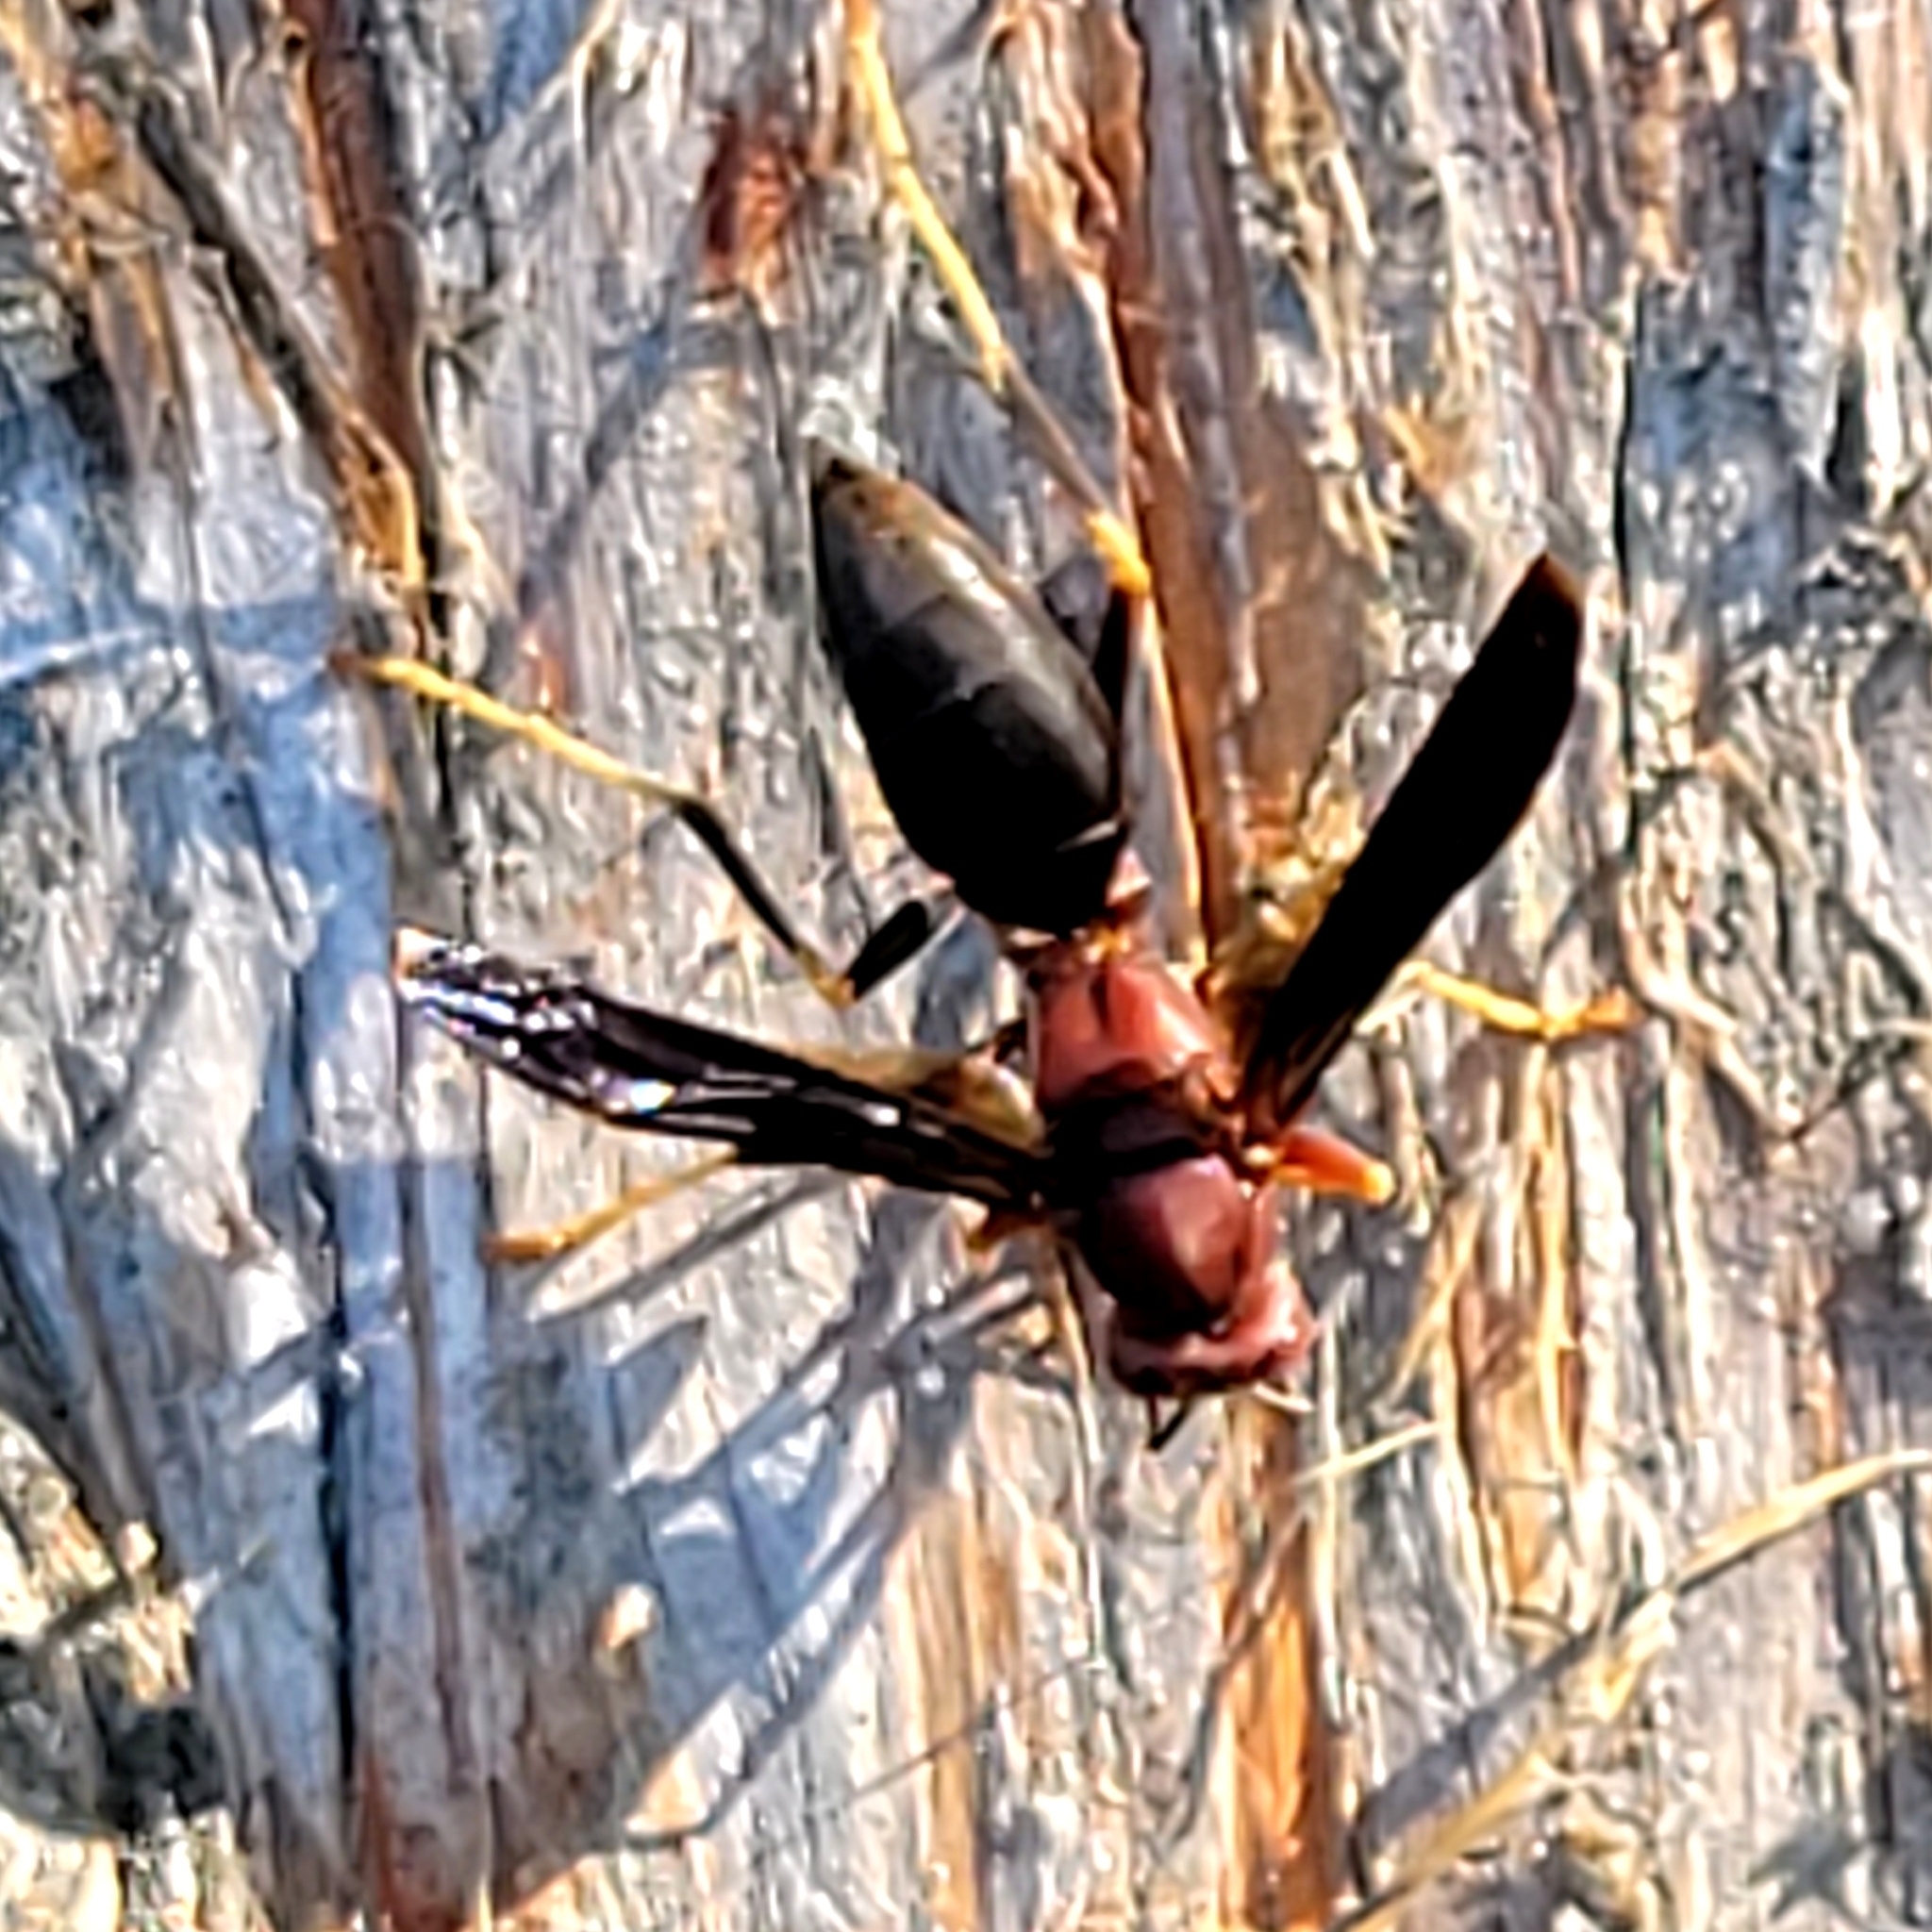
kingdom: Animalia
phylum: Arthropoda
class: Insecta
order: Hymenoptera
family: Eumenidae
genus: Polistes
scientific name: Polistes metricus
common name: Metric paper wasp
